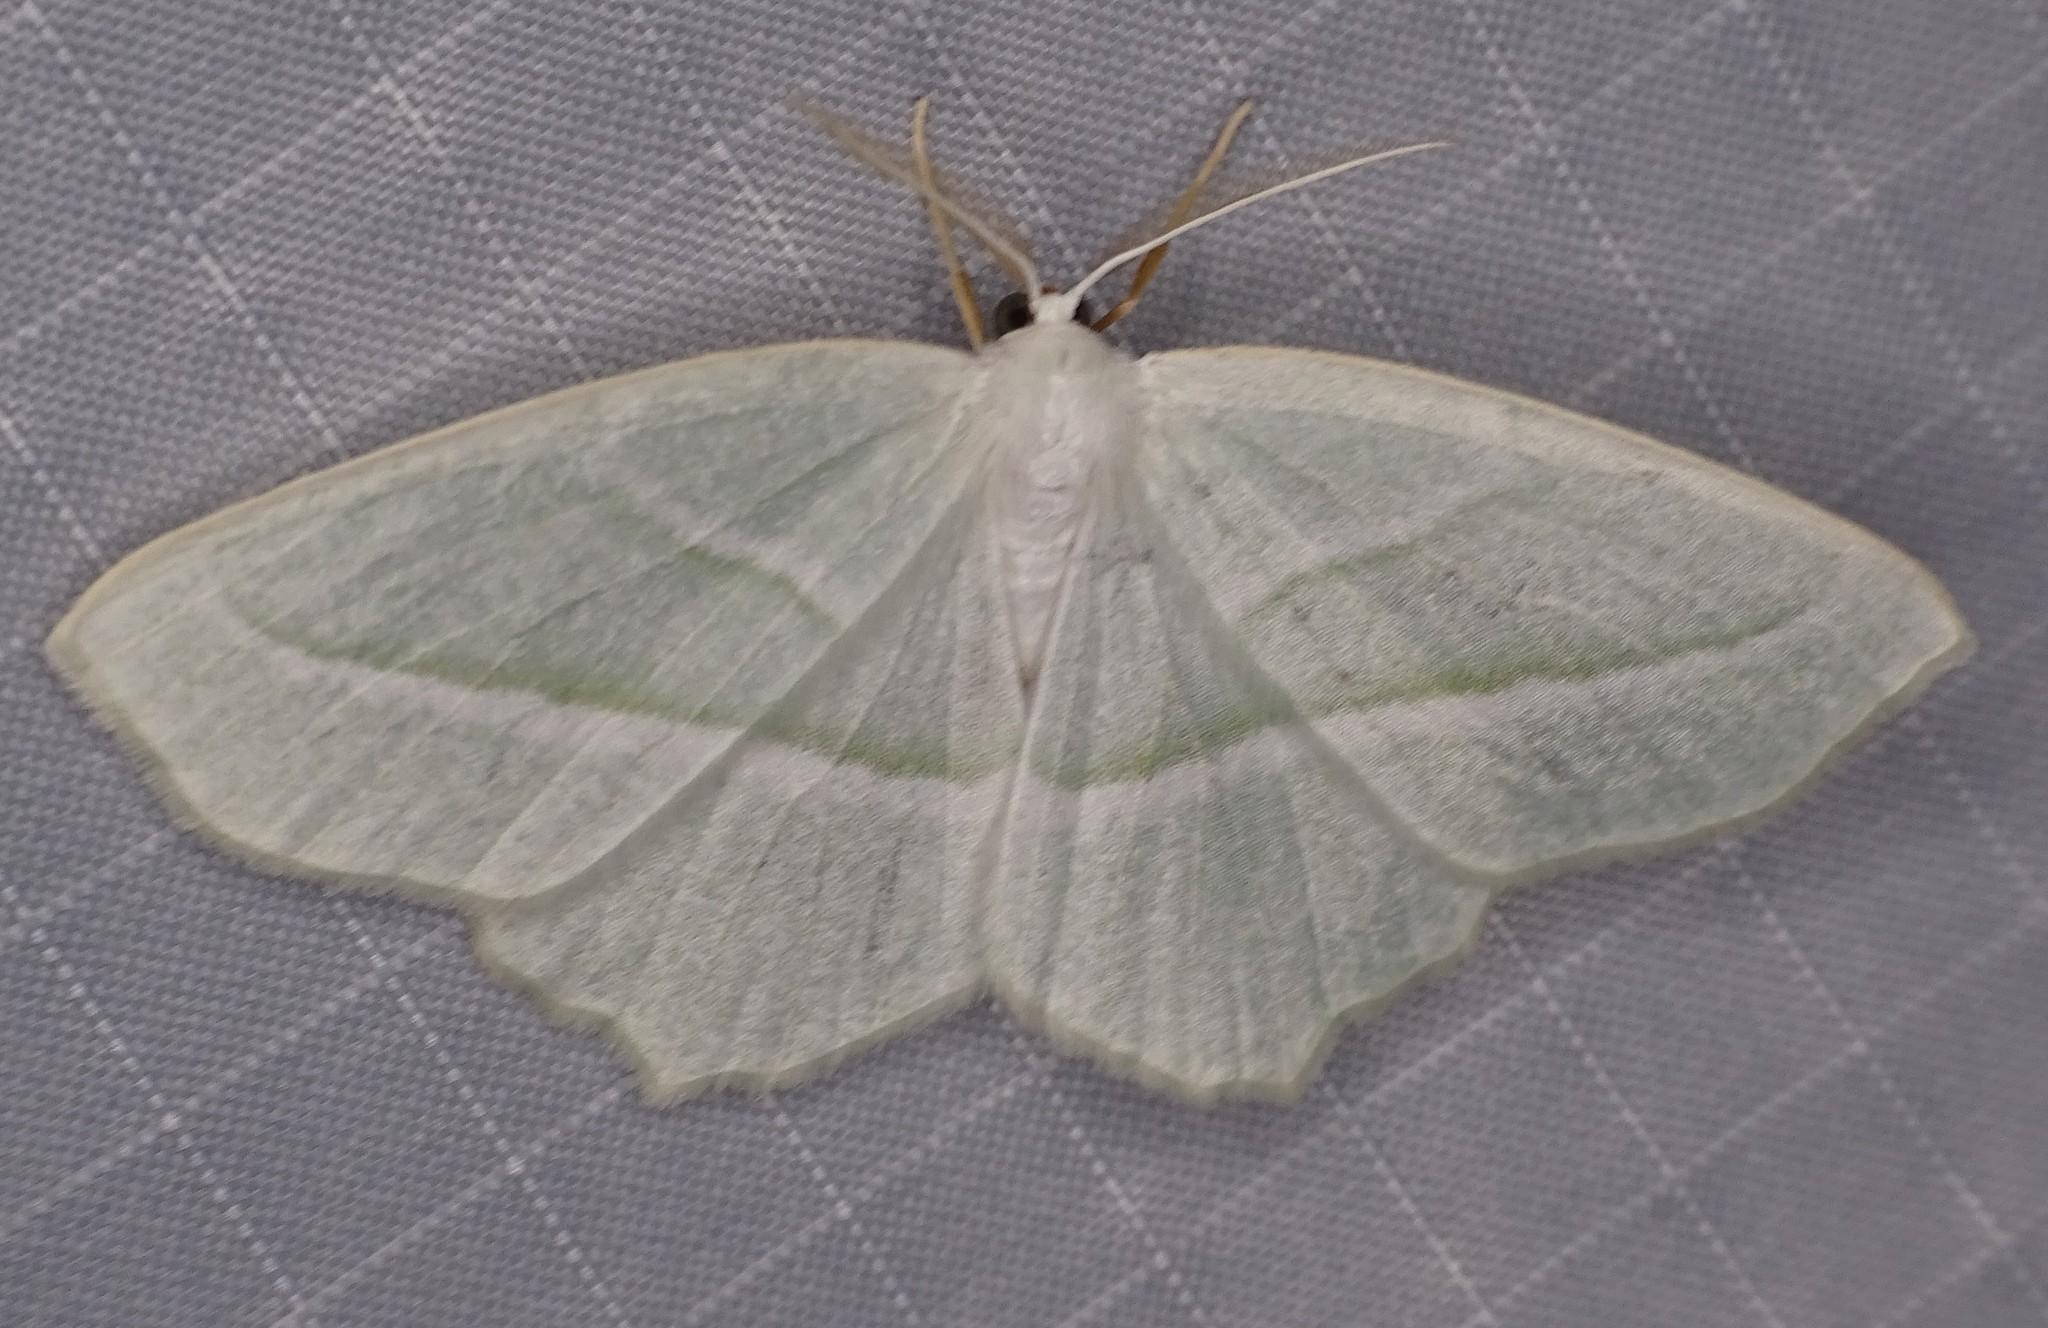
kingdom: Animalia
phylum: Arthropoda
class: Insecta
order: Lepidoptera
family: Geometridae
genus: Campaea
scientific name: Campaea perlata
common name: Fringed looper
